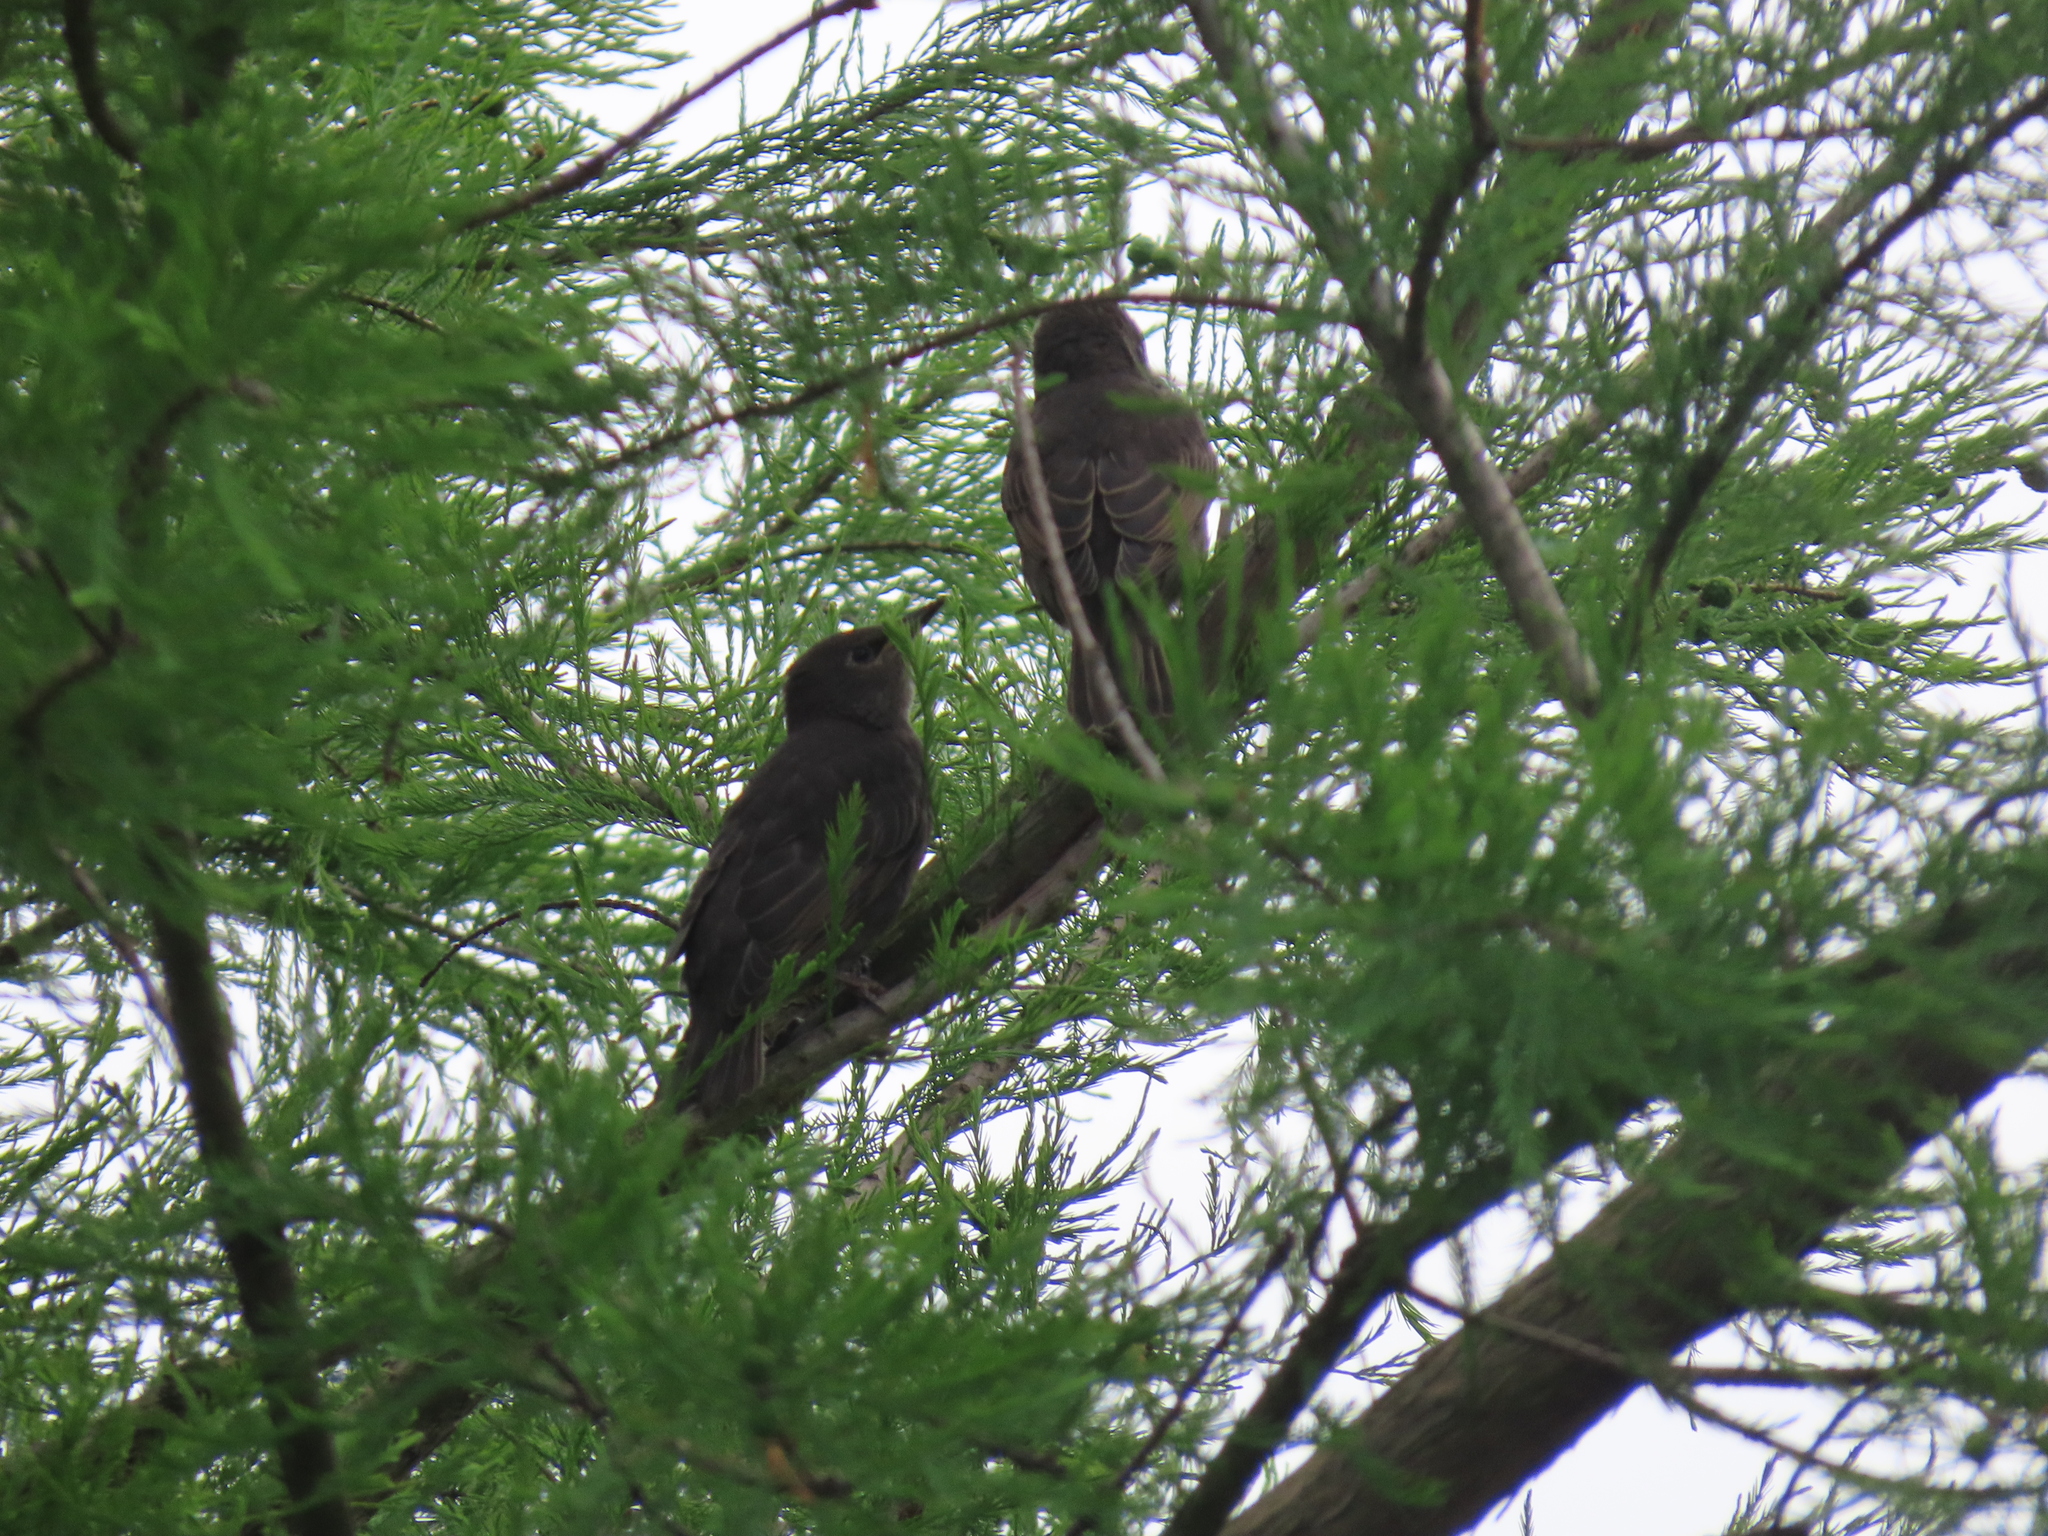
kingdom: Animalia
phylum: Chordata
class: Aves
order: Passeriformes
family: Sturnidae
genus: Sturnus
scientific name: Sturnus vulgaris
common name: Common starling
